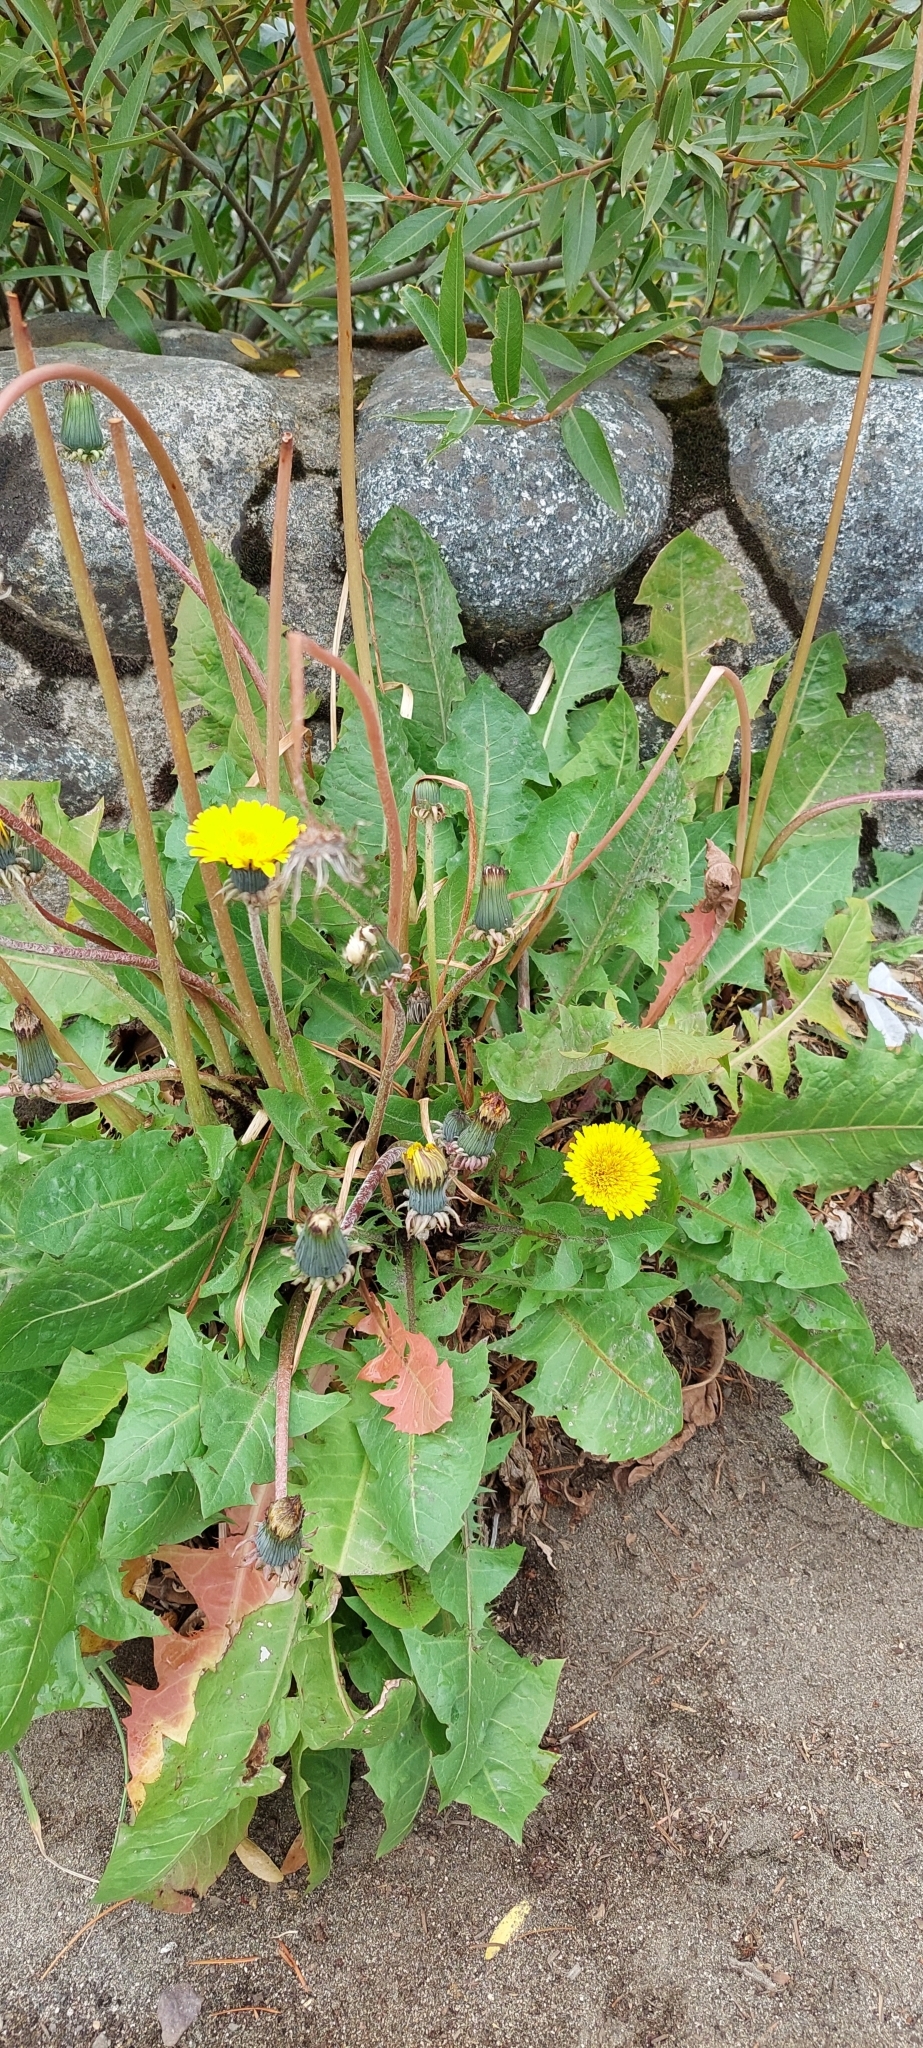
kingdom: Plantae
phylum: Tracheophyta
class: Magnoliopsida
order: Asterales
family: Asteraceae
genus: Taraxacum
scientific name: Taraxacum officinale
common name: Common dandelion
